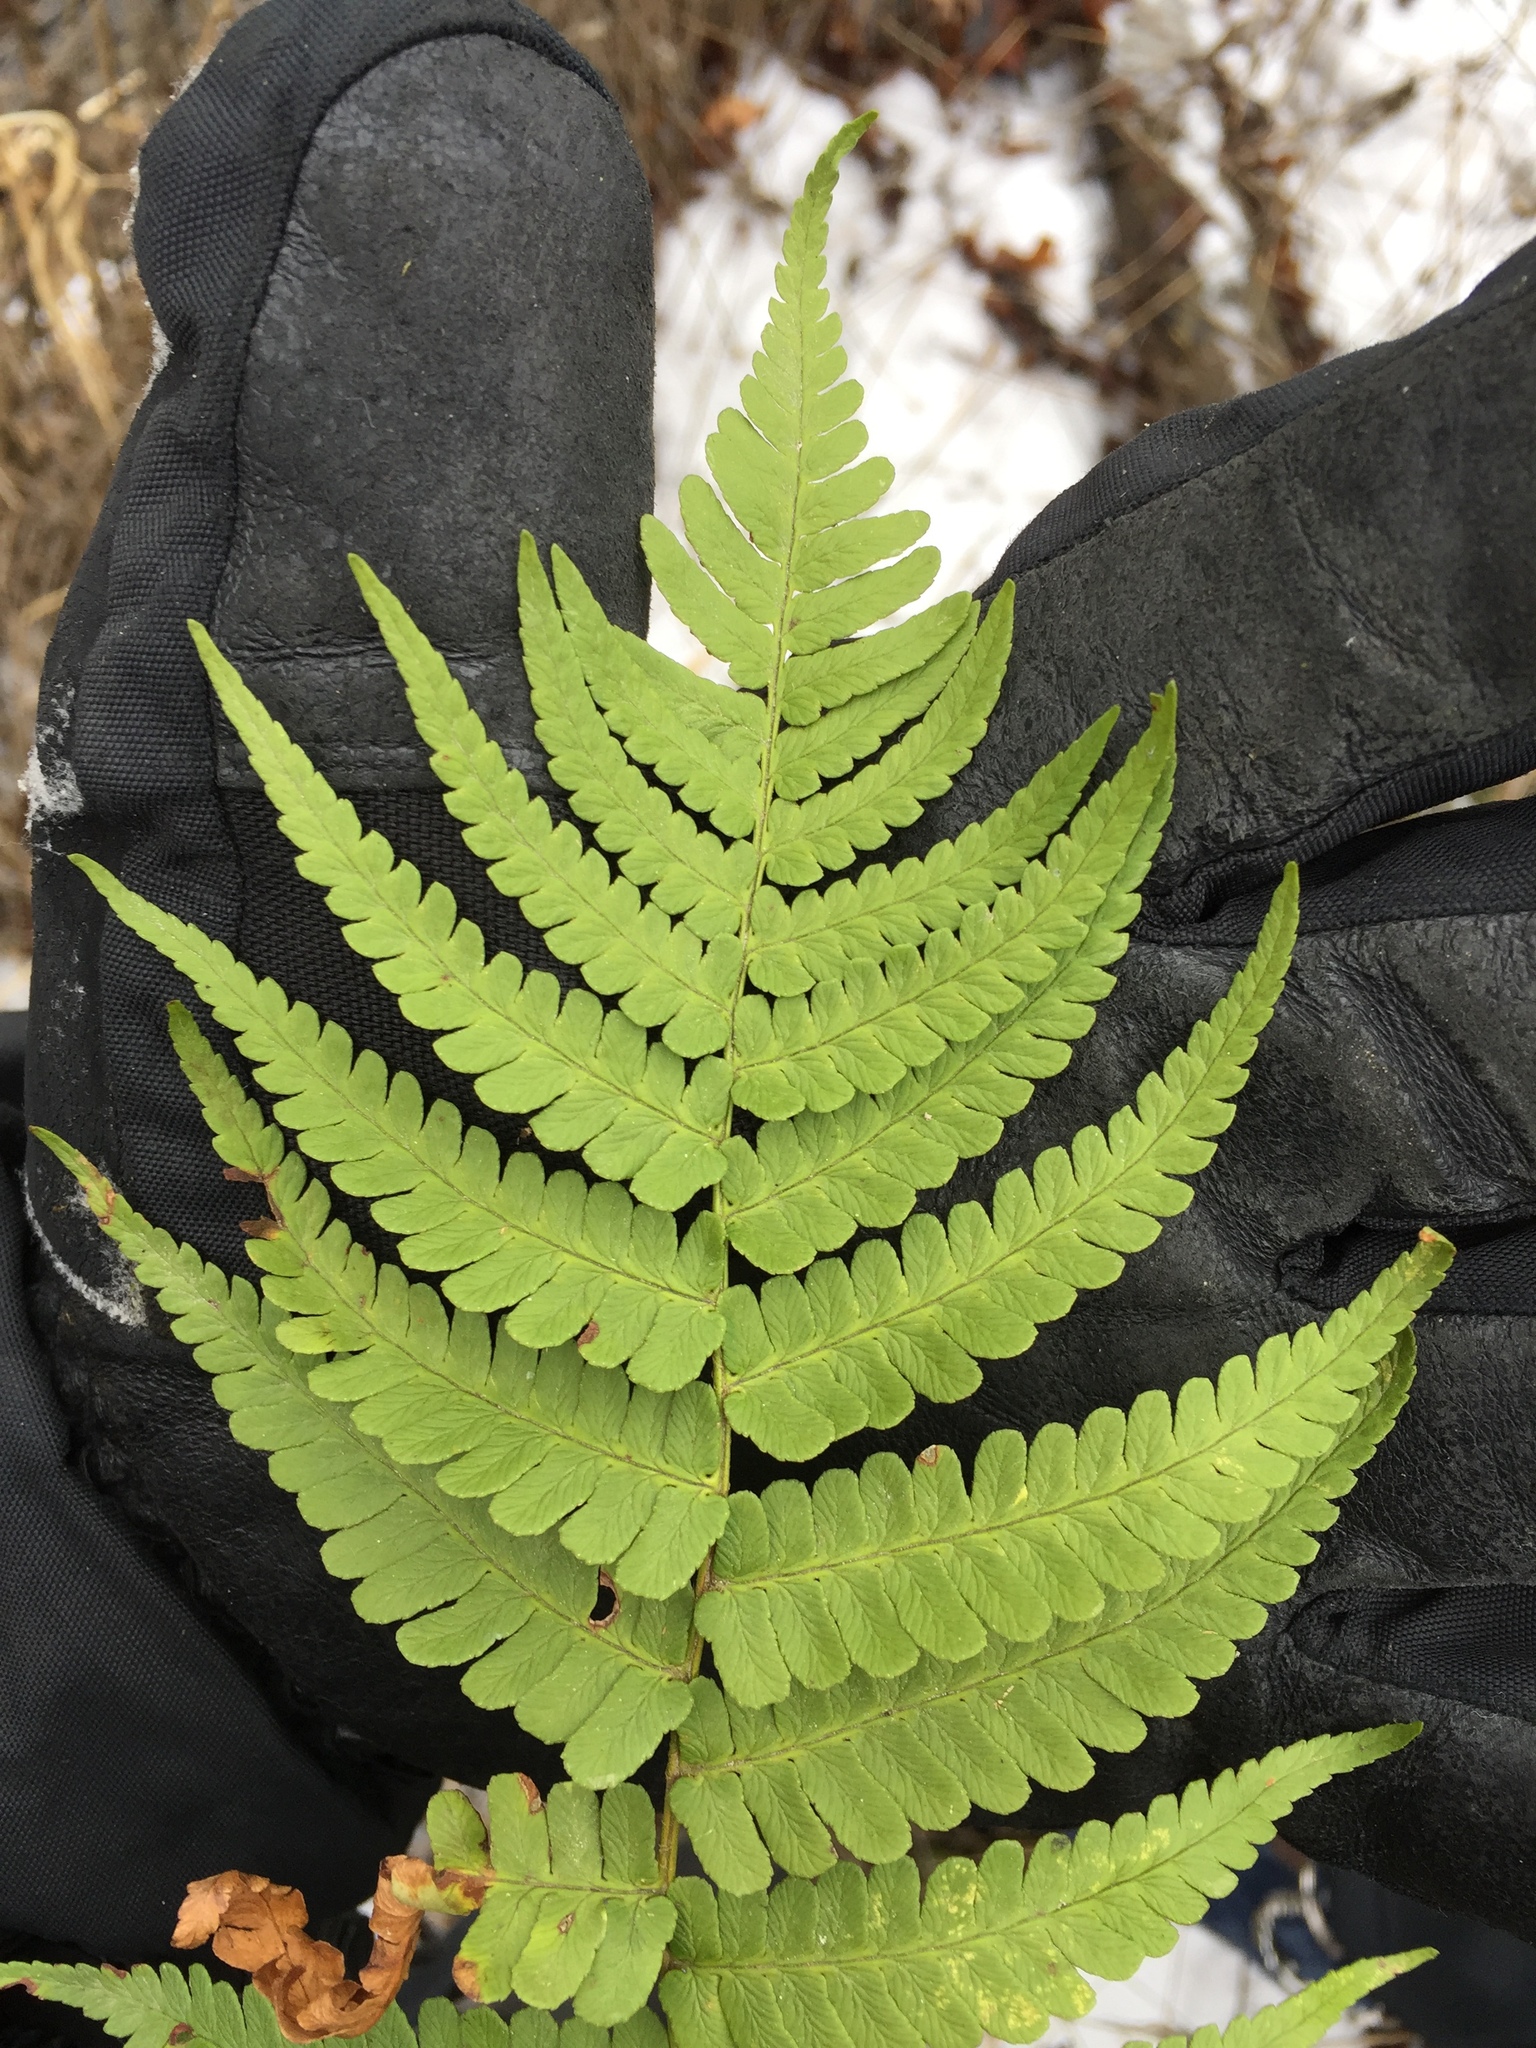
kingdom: Plantae
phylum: Tracheophyta
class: Polypodiopsida
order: Polypodiales
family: Dryopteridaceae
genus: Dryopteris
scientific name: Dryopteris marginalis
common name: Marginal wood fern
